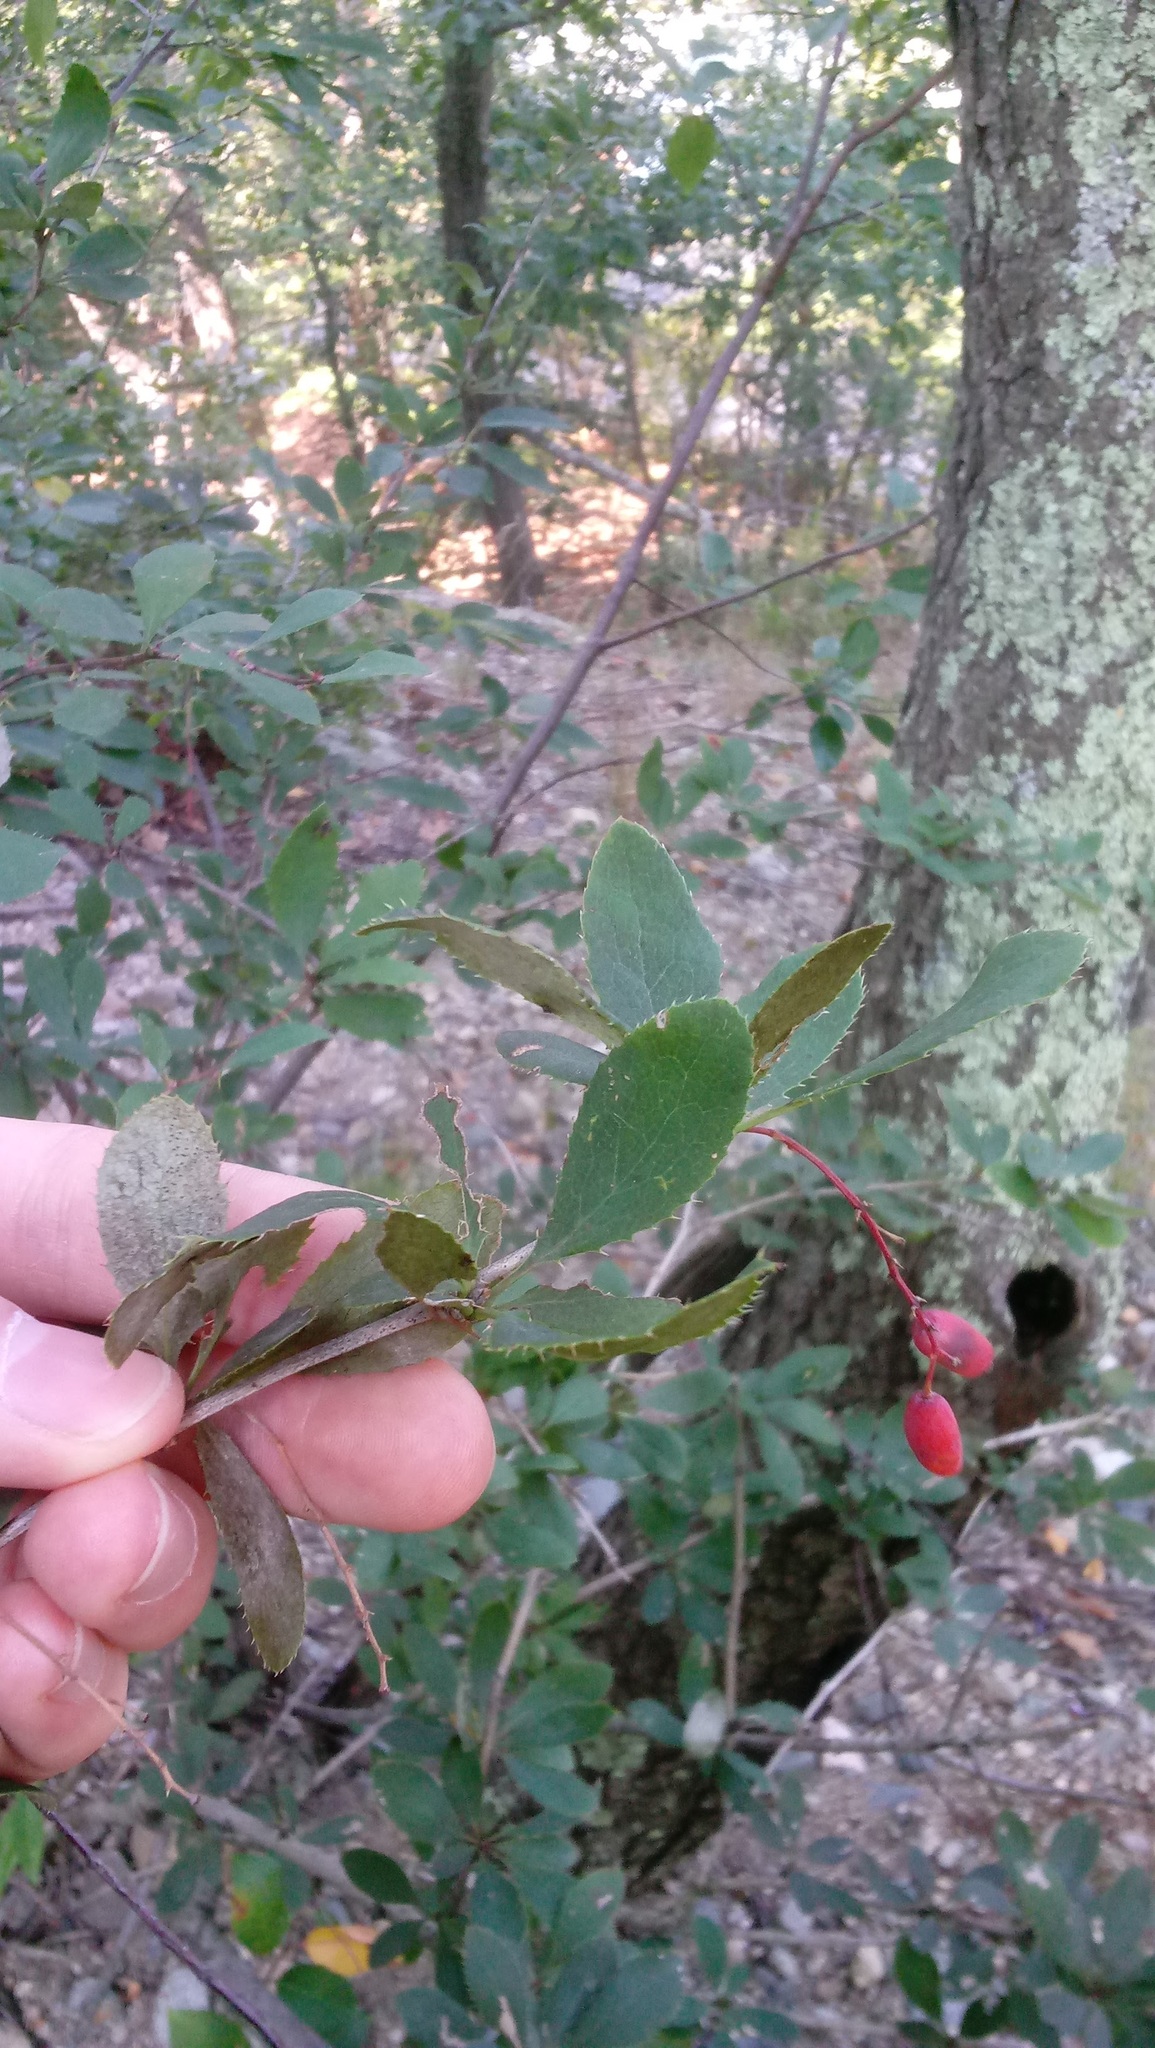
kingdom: Plantae
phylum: Tracheophyta
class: Magnoliopsida
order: Ranunculales
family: Berberidaceae
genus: Berberis
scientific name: Berberis vulgaris
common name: Barberry
